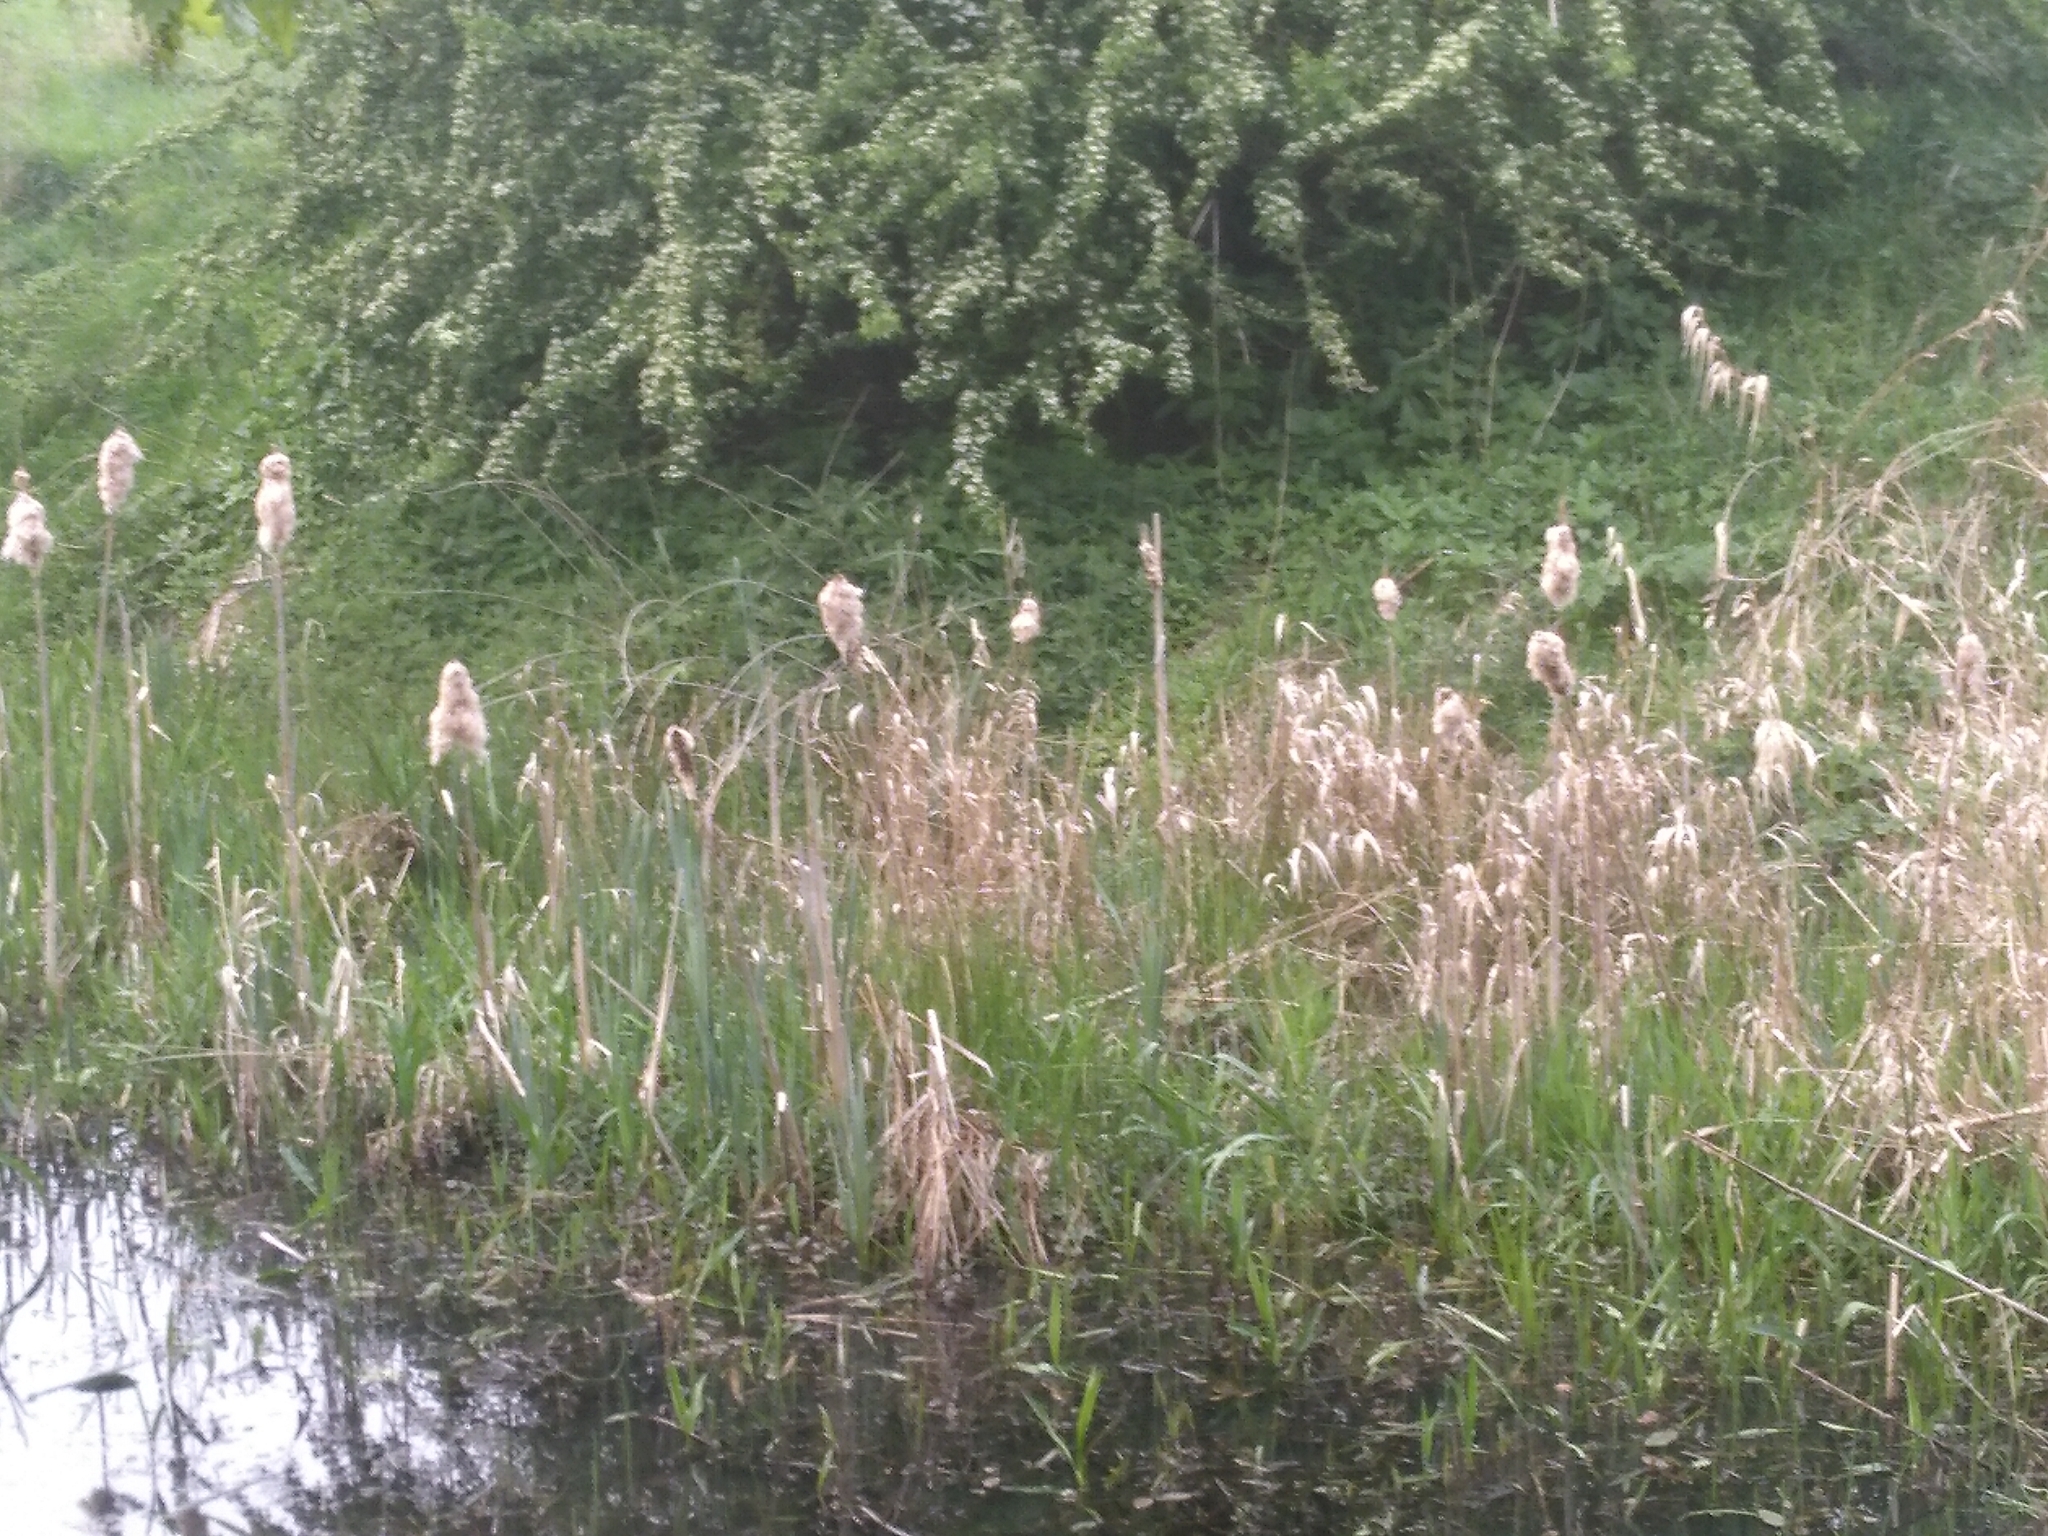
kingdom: Plantae
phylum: Tracheophyta
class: Liliopsida
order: Poales
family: Typhaceae
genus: Typha
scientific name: Typha latifolia
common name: Broadleaf cattail
